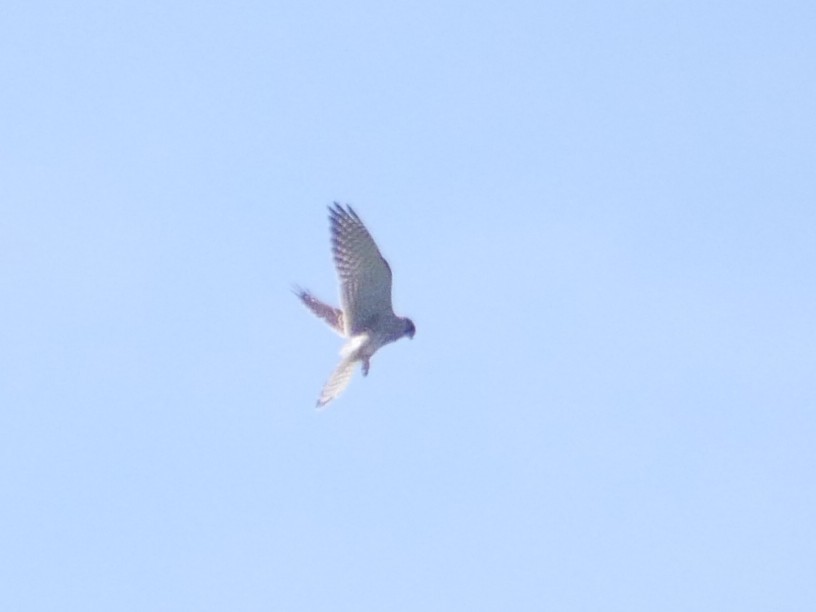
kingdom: Animalia
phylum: Chordata
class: Aves
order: Falconiformes
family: Falconidae
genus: Falco
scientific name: Falco tinnunculus
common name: Common kestrel
